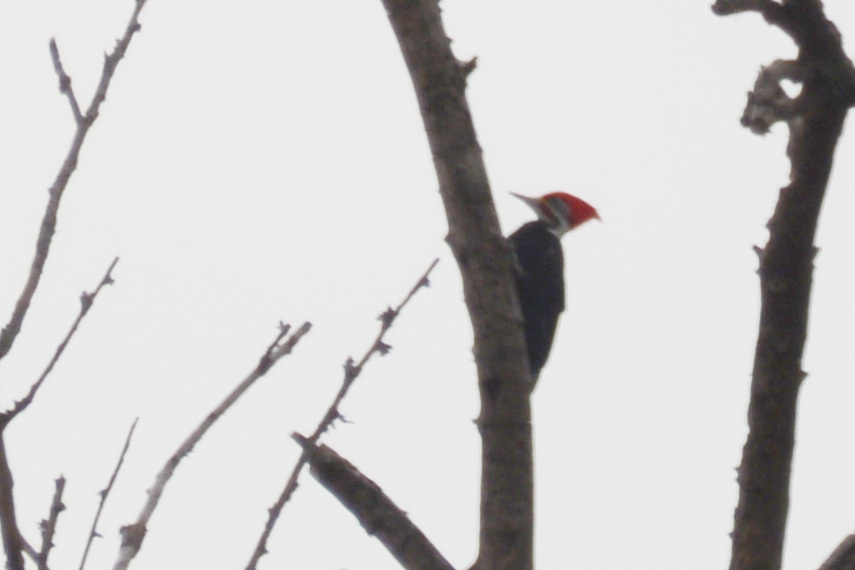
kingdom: Animalia
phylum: Chordata
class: Aves
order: Piciformes
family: Picidae
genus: Dryocopus
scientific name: Dryocopus schulzii
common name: Black-bodied woodpecker
